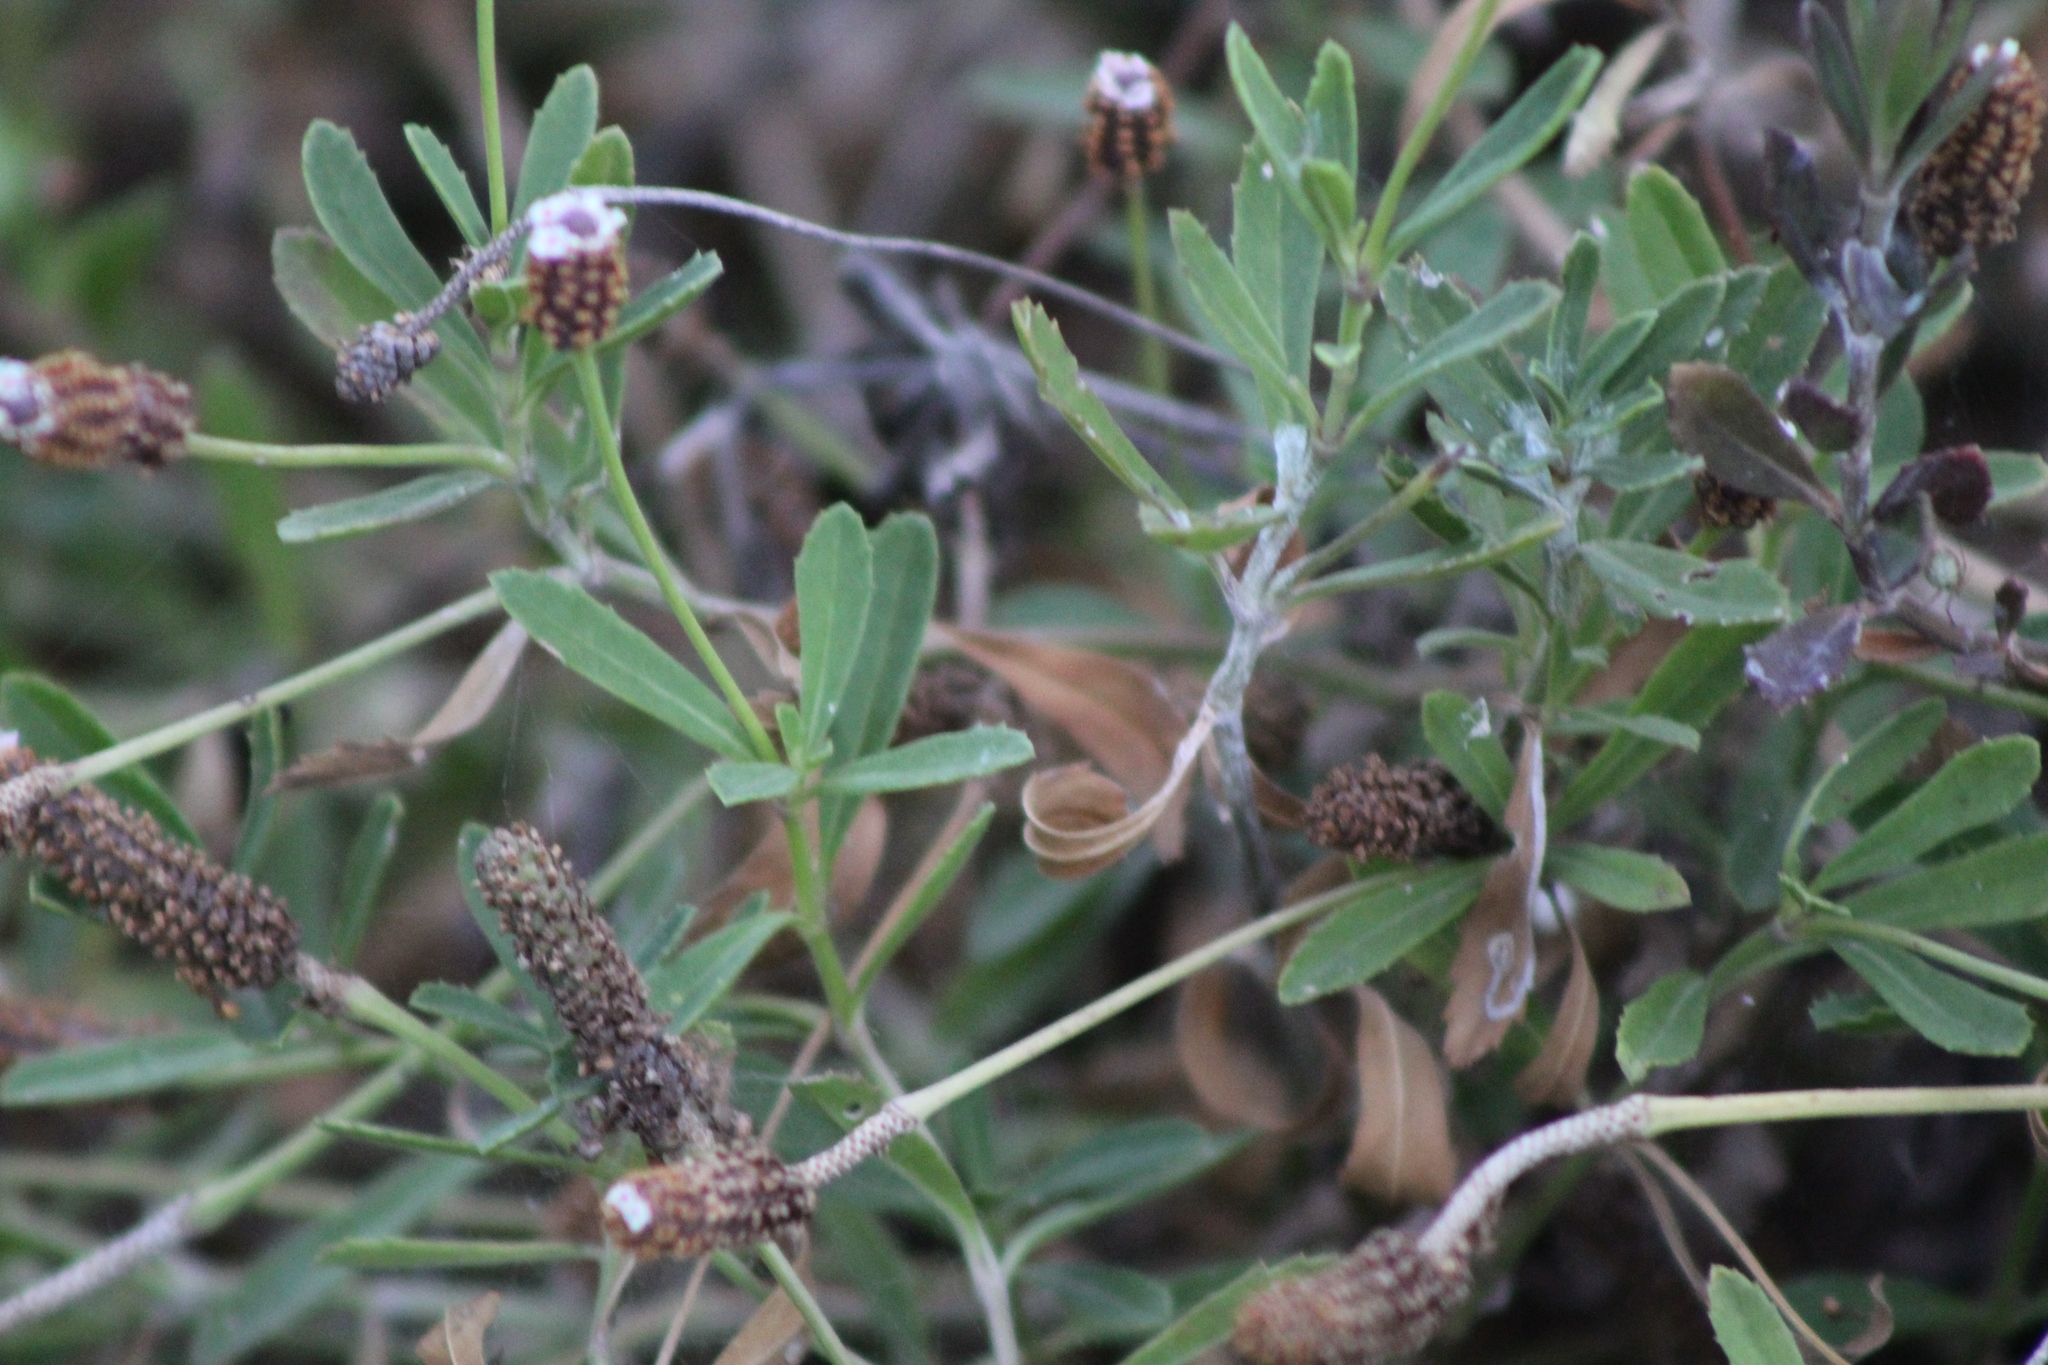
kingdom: Plantae
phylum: Tracheophyta
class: Magnoliopsida
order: Lamiales
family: Verbenaceae
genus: Phyla
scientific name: Phyla nodiflora
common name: Frogfruit
